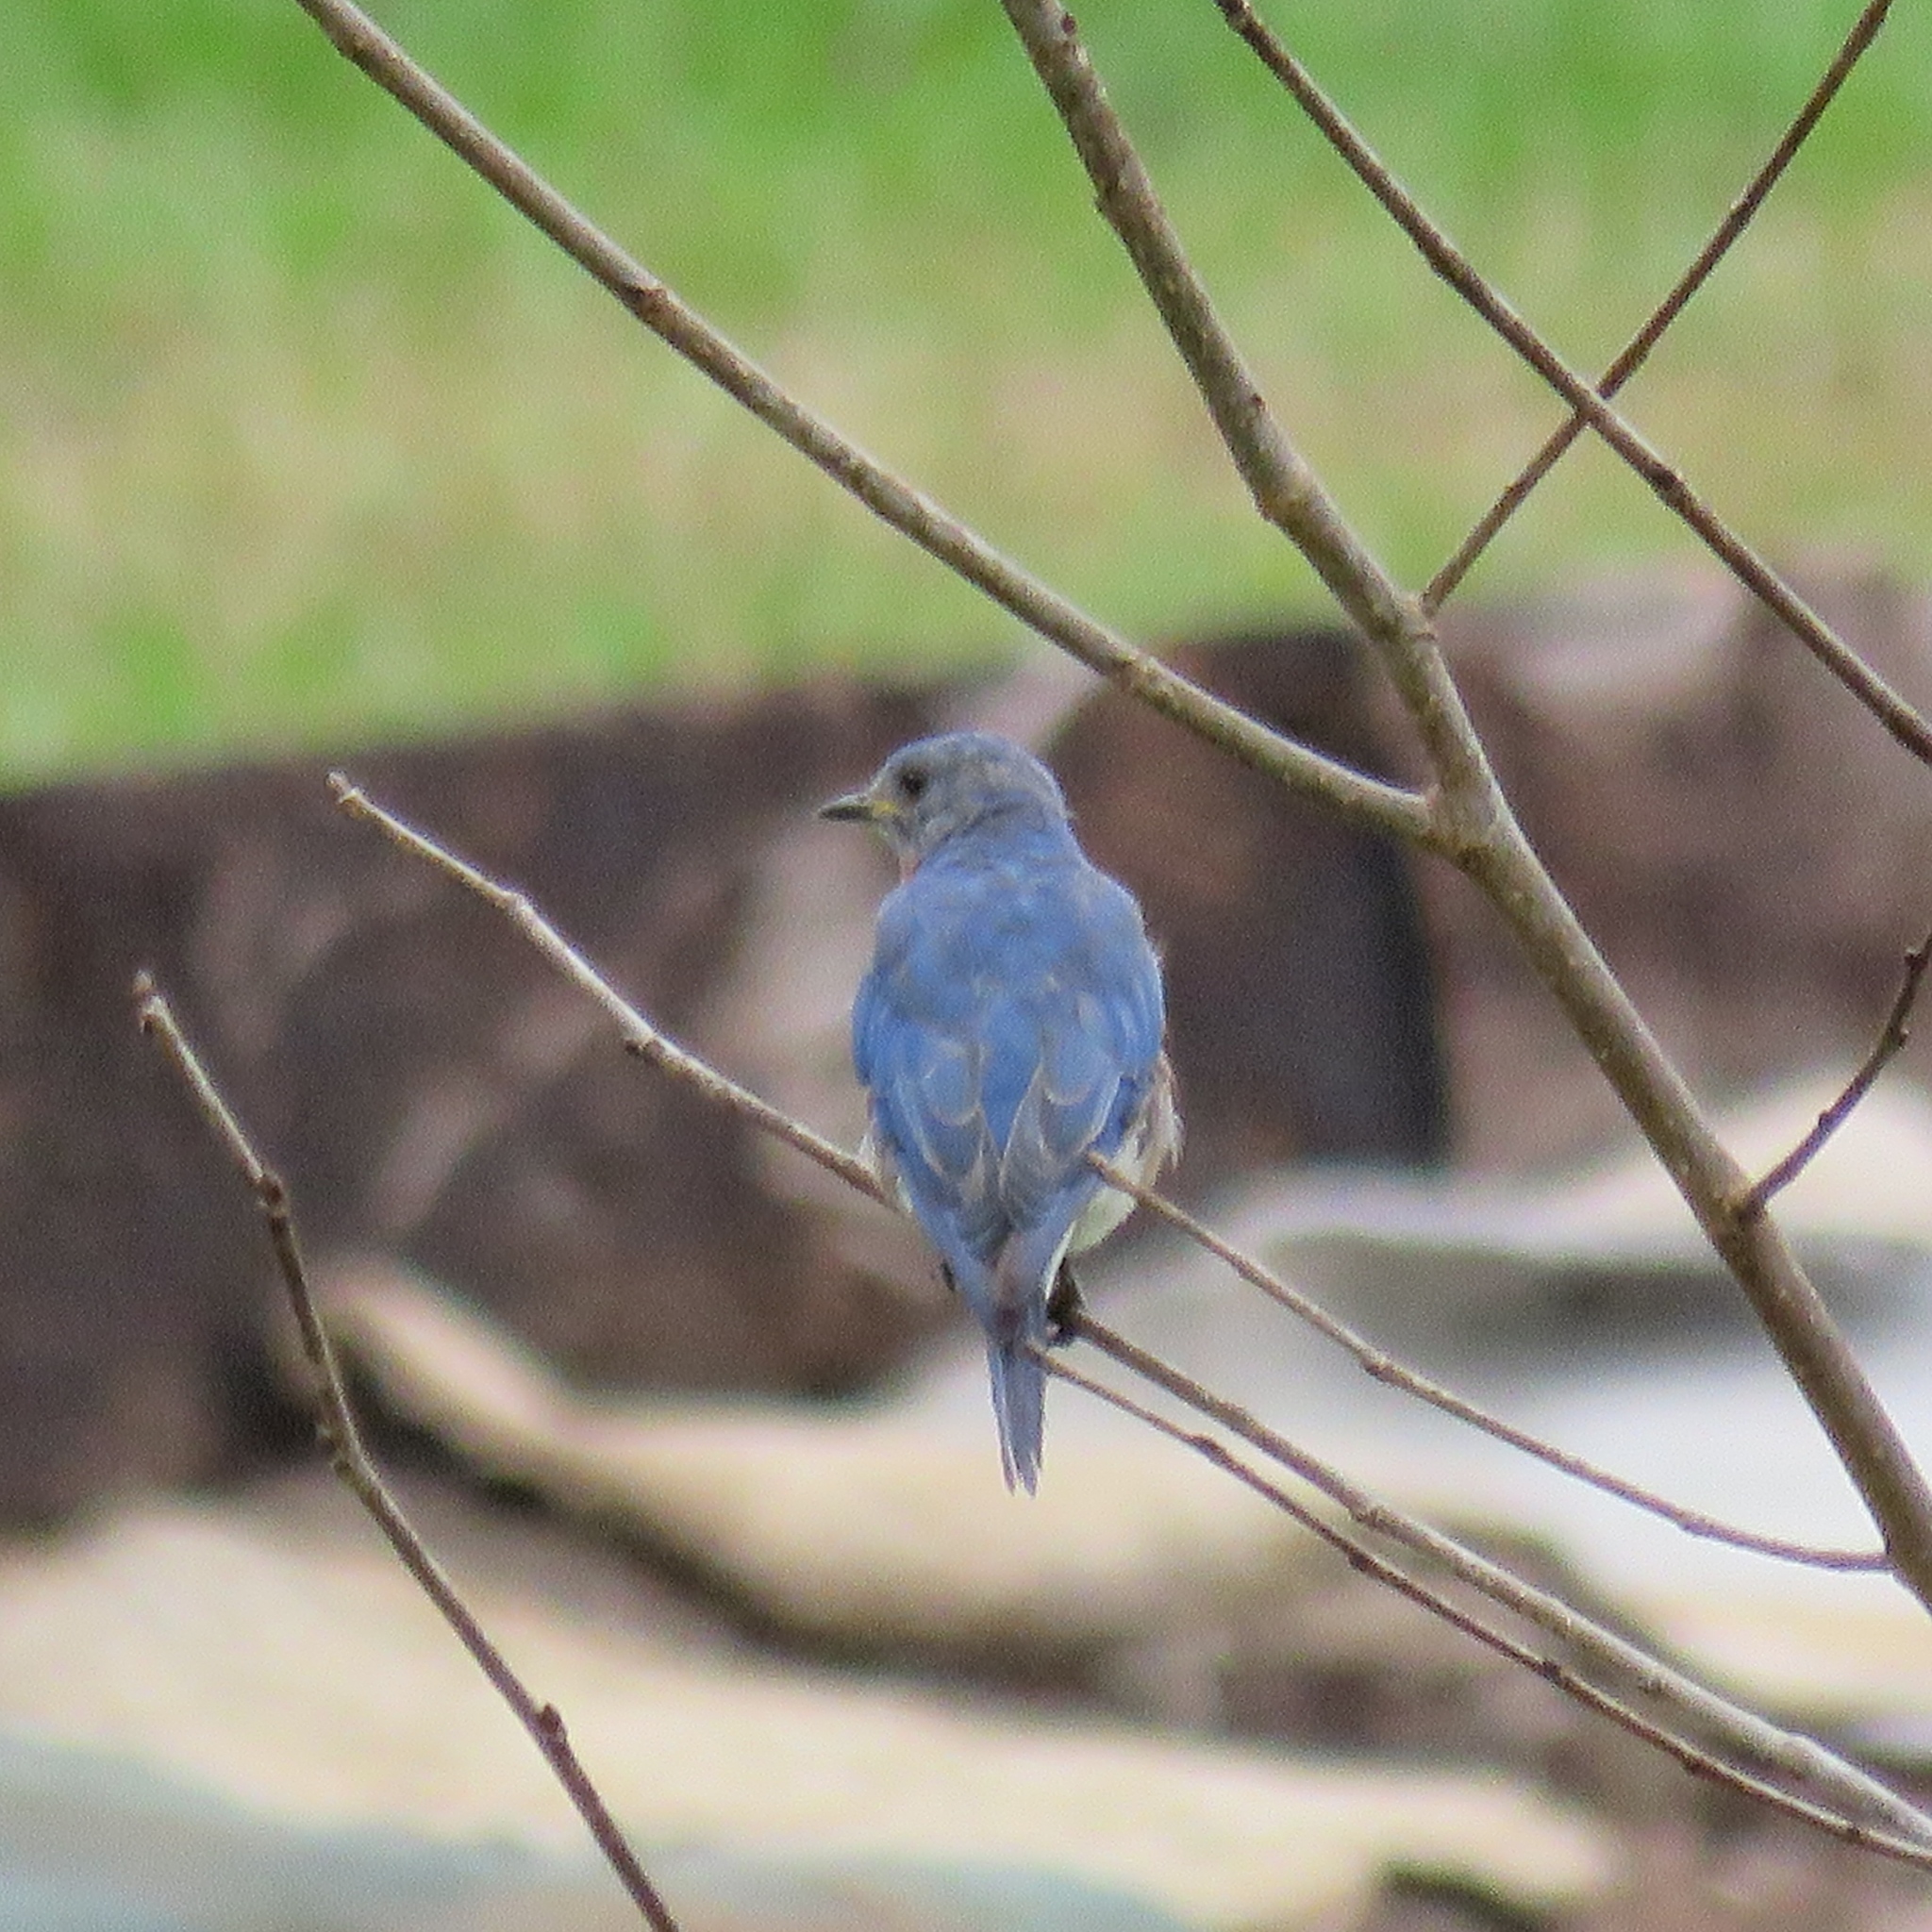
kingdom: Animalia
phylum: Chordata
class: Aves
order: Passeriformes
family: Turdidae
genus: Sialia
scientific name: Sialia sialis
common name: Eastern bluebird
